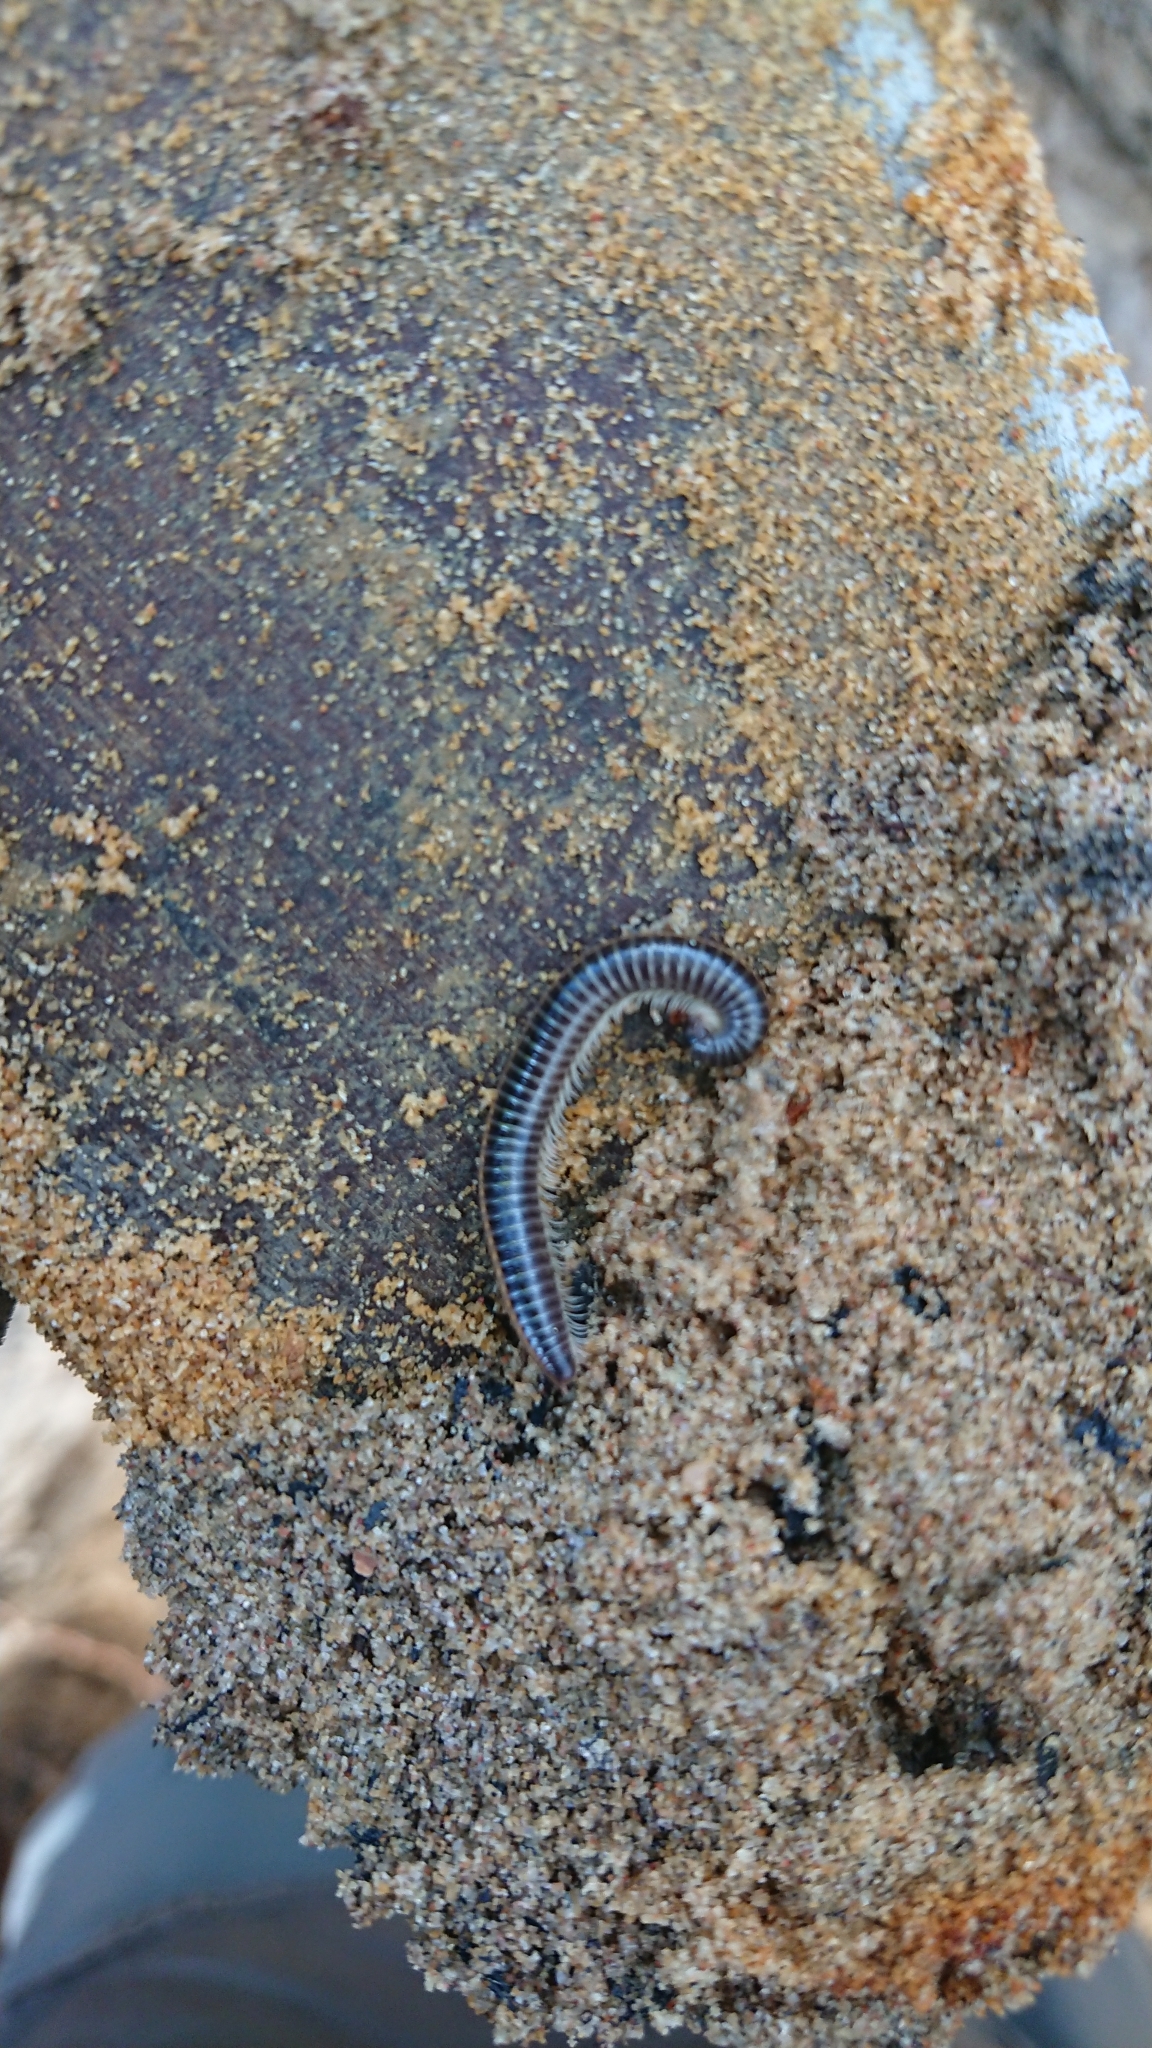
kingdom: Animalia
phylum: Arthropoda
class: Diplopoda
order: Julida
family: Julidae
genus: Ommatoiulus
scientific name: Ommatoiulus sabulosus
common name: Striped millipede
